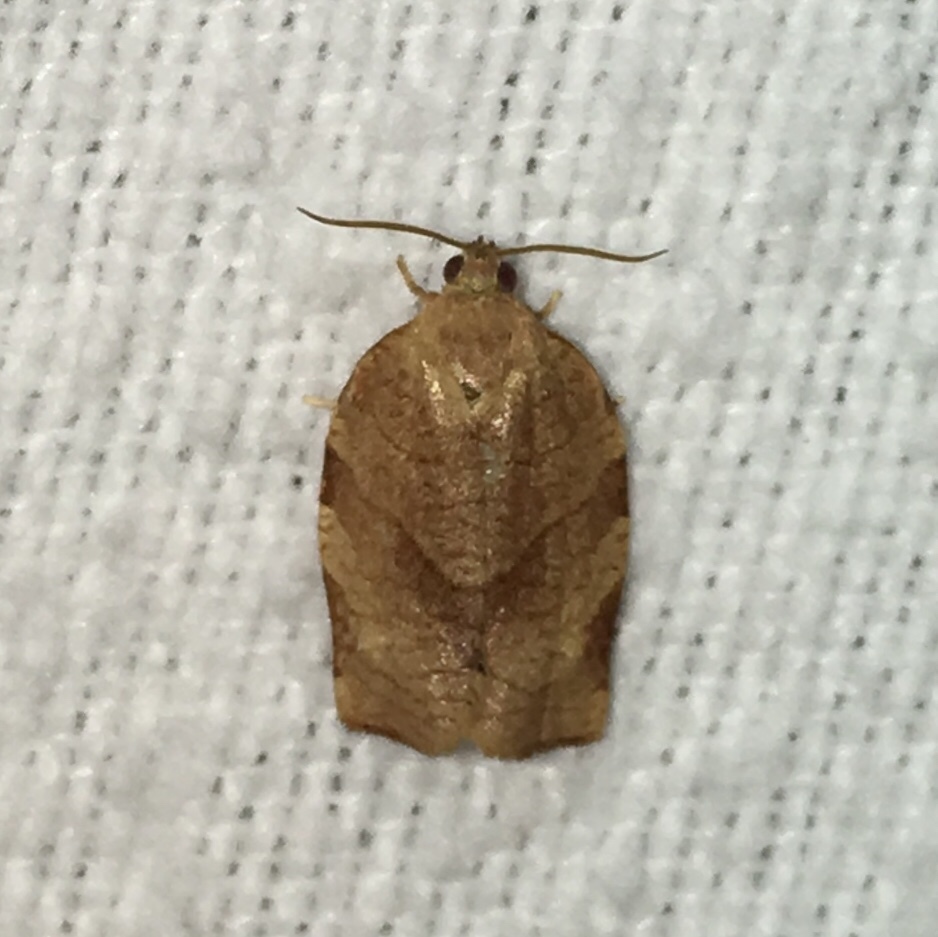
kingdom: Animalia
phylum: Arthropoda
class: Insecta
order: Lepidoptera
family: Tortricidae
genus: Choristoneura
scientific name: Choristoneura rosaceana
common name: Oblique-banded leafroller moth
